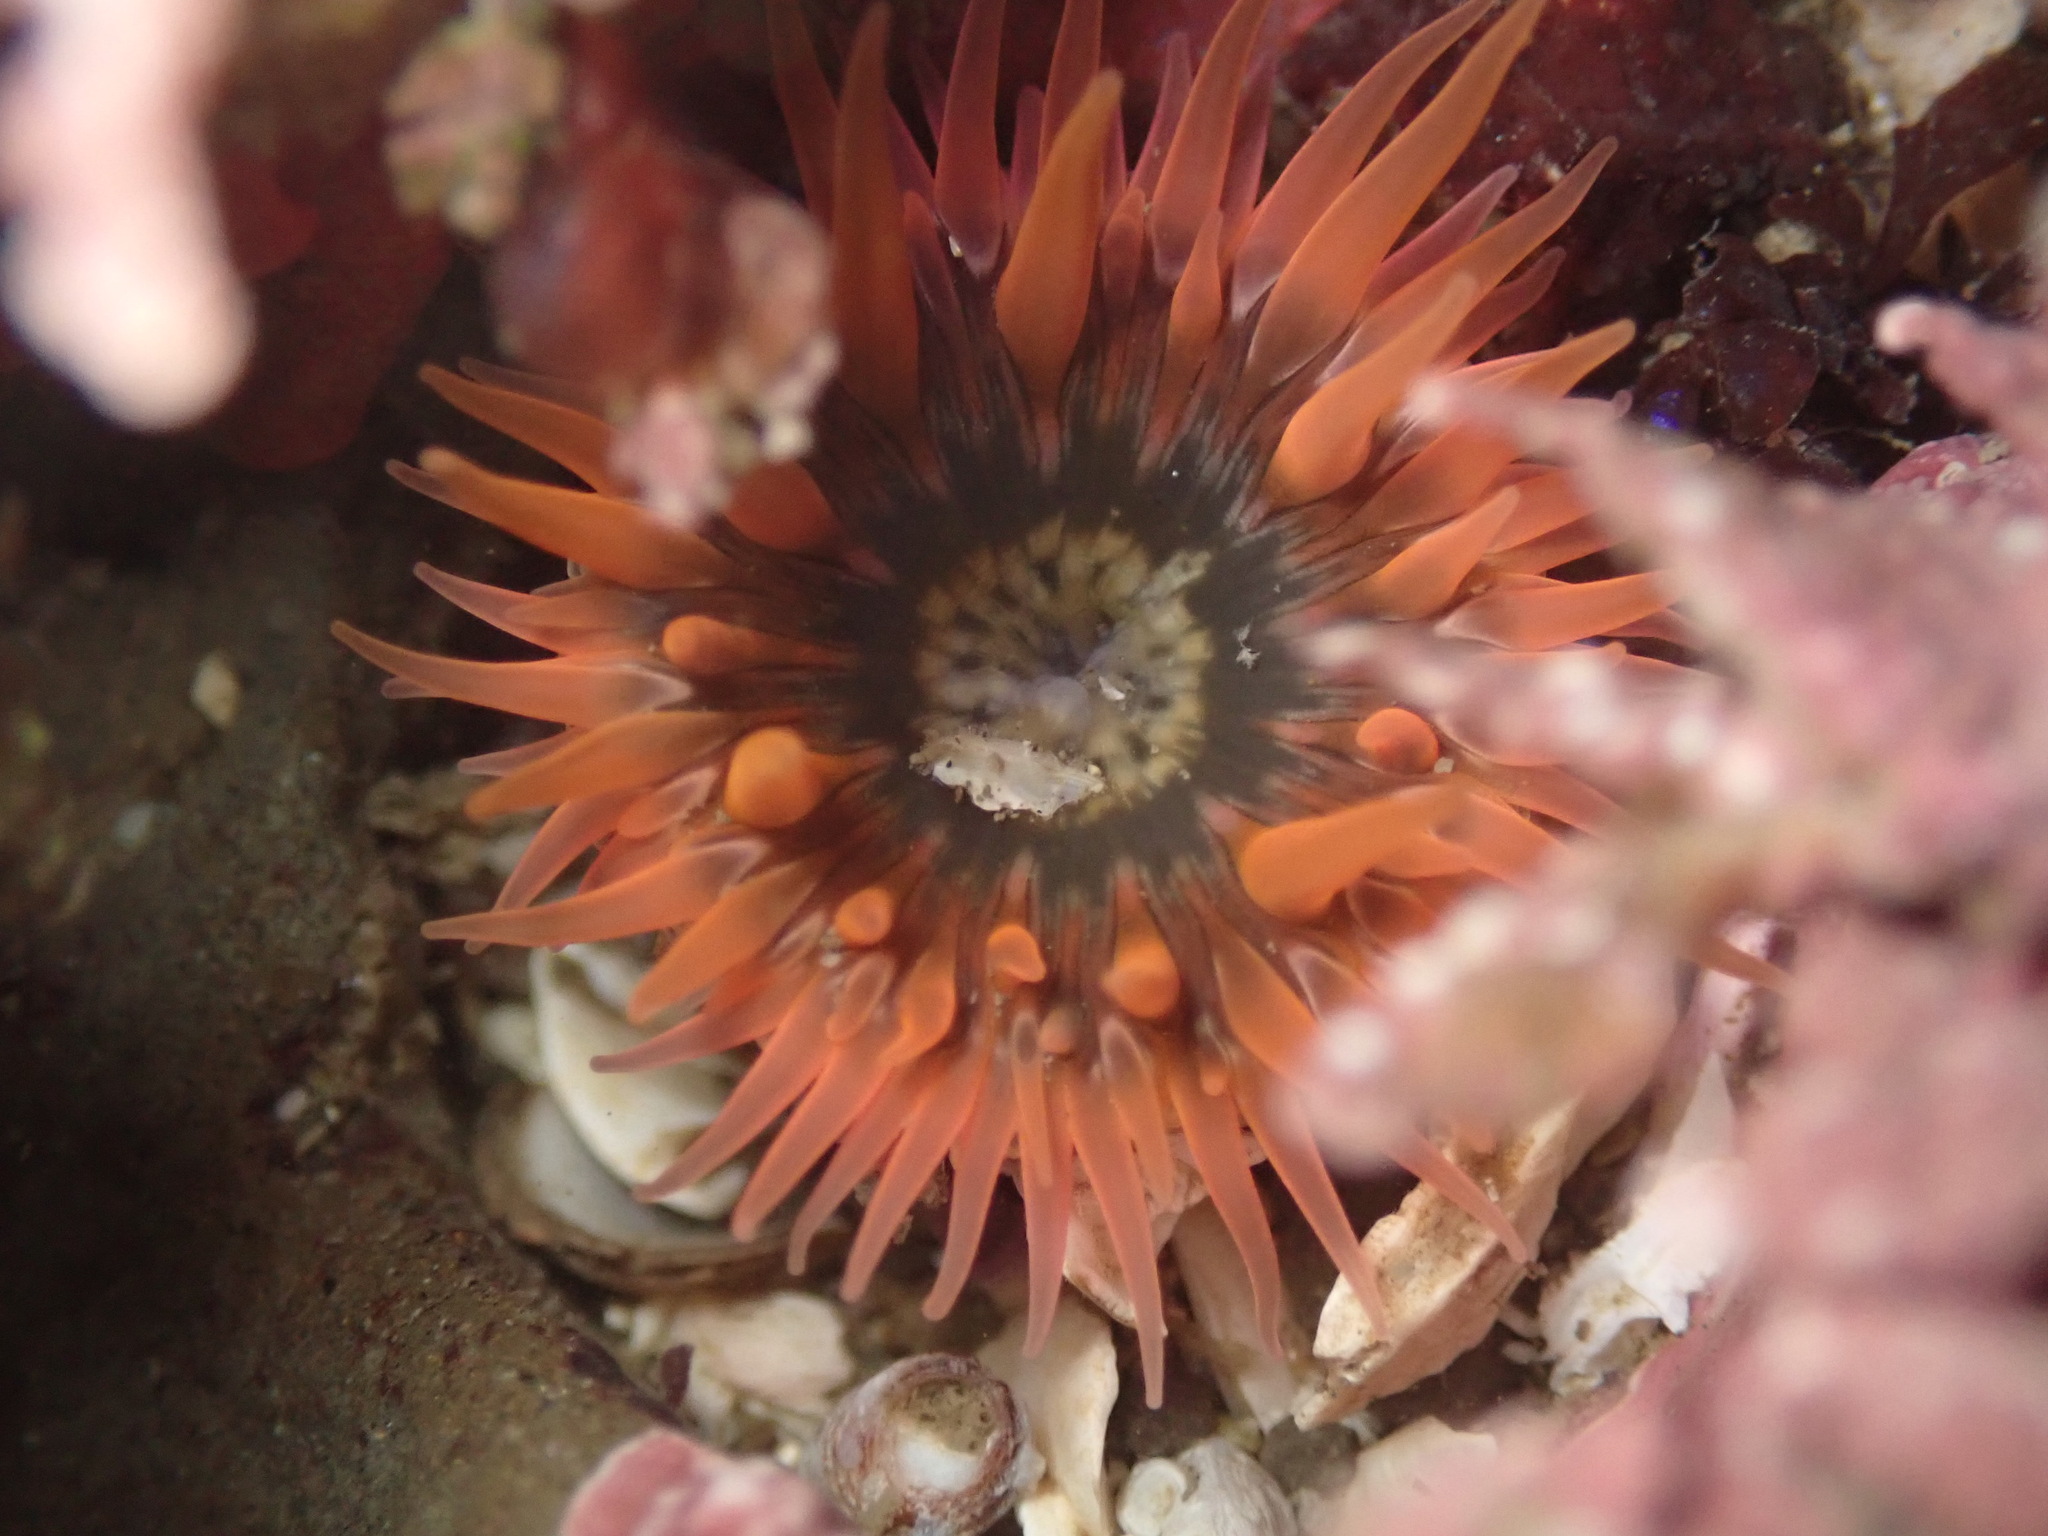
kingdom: Animalia
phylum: Cnidaria
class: Anthozoa
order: Actiniaria
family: Actiniidae
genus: Anthopleura
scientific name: Anthopleura artemisia
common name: Buried sea anemone
